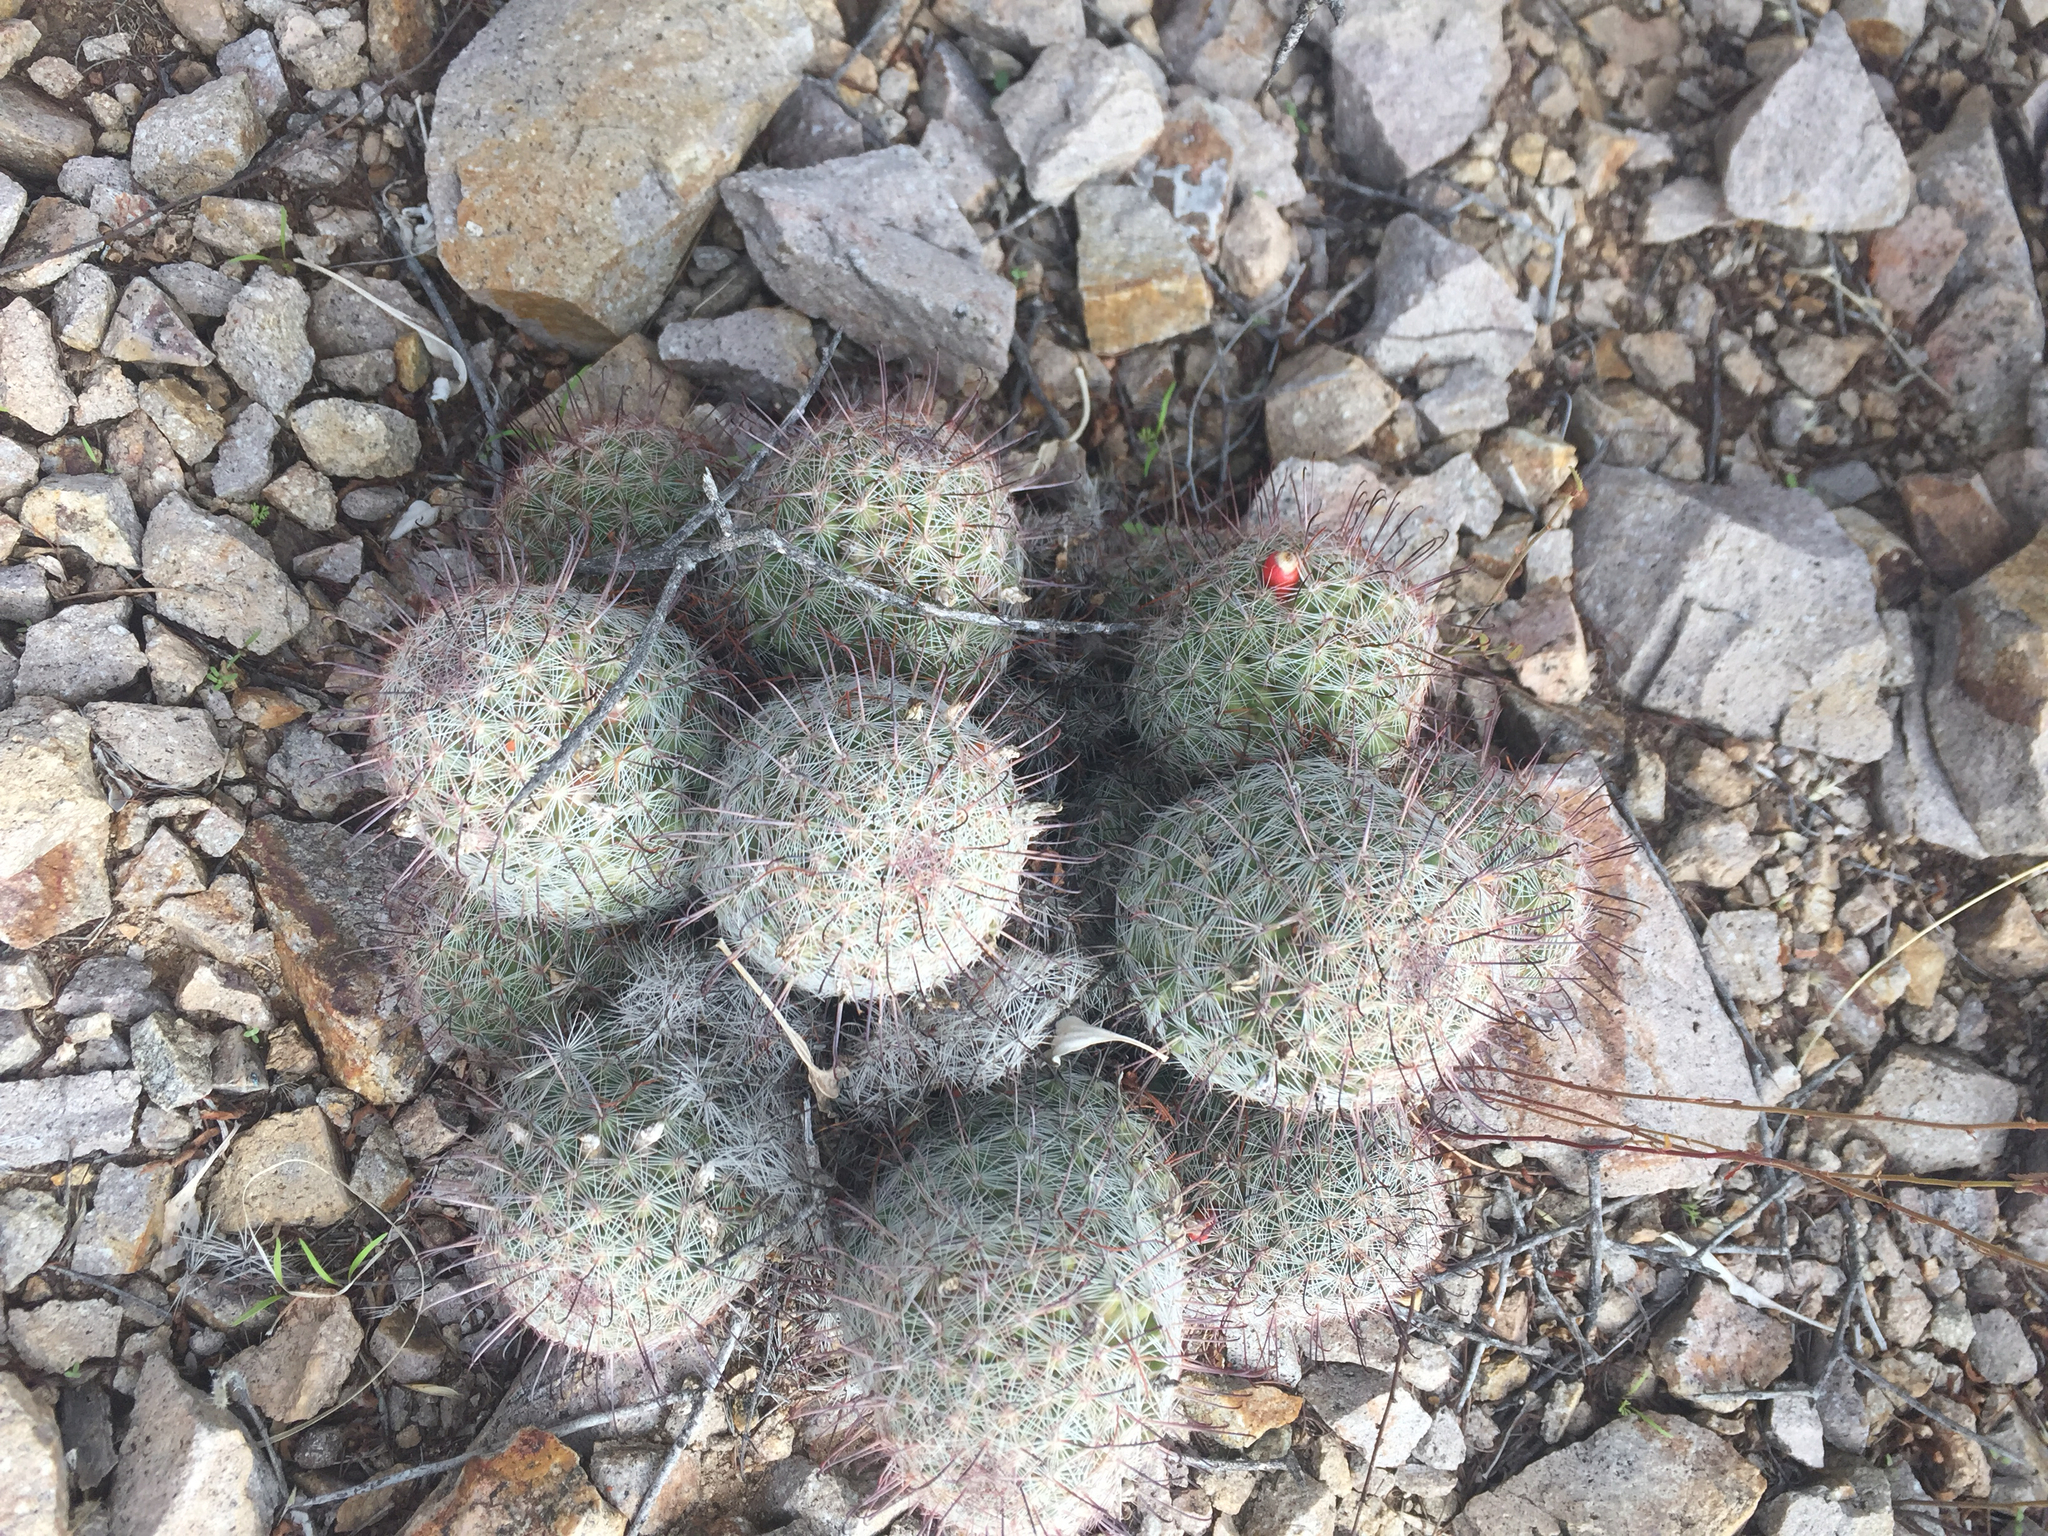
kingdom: Plantae
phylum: Tracheophyta
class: Magnoliopsida
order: Caryophyllales
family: Cactaceae
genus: Cochemiea
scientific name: Cochemiea grahamii
